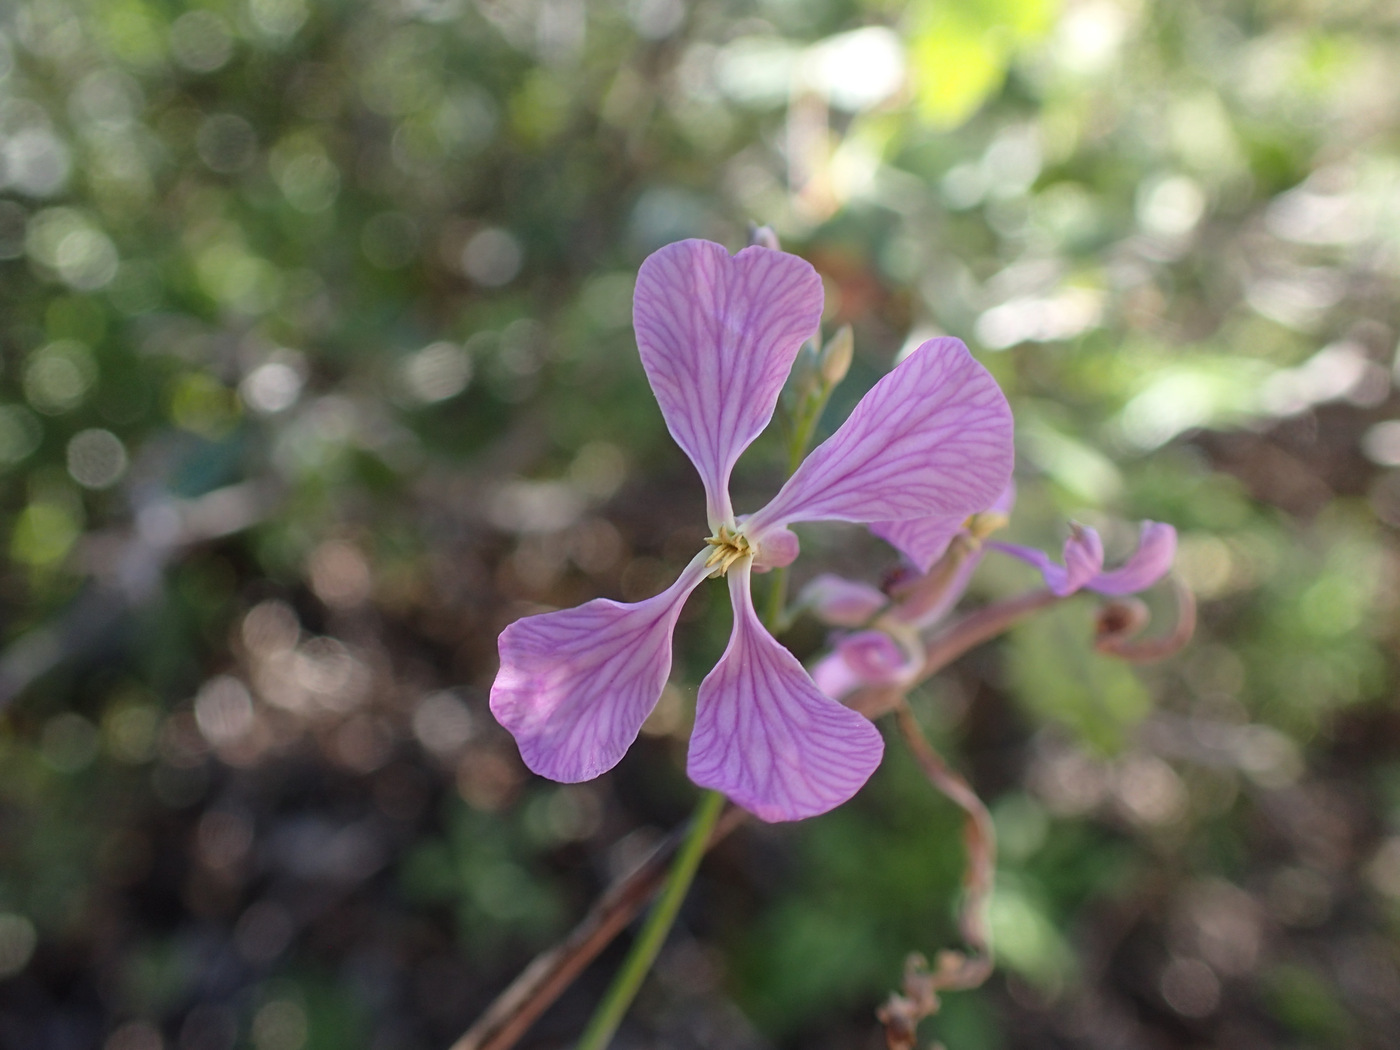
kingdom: Plantae
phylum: Tracheophyta
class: Magnoliopsida
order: Brassicales
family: Brassicaceae
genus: Hesperidanthus
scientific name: Hesperidanthus linearifolius
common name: Slim-leaf plains mustard
